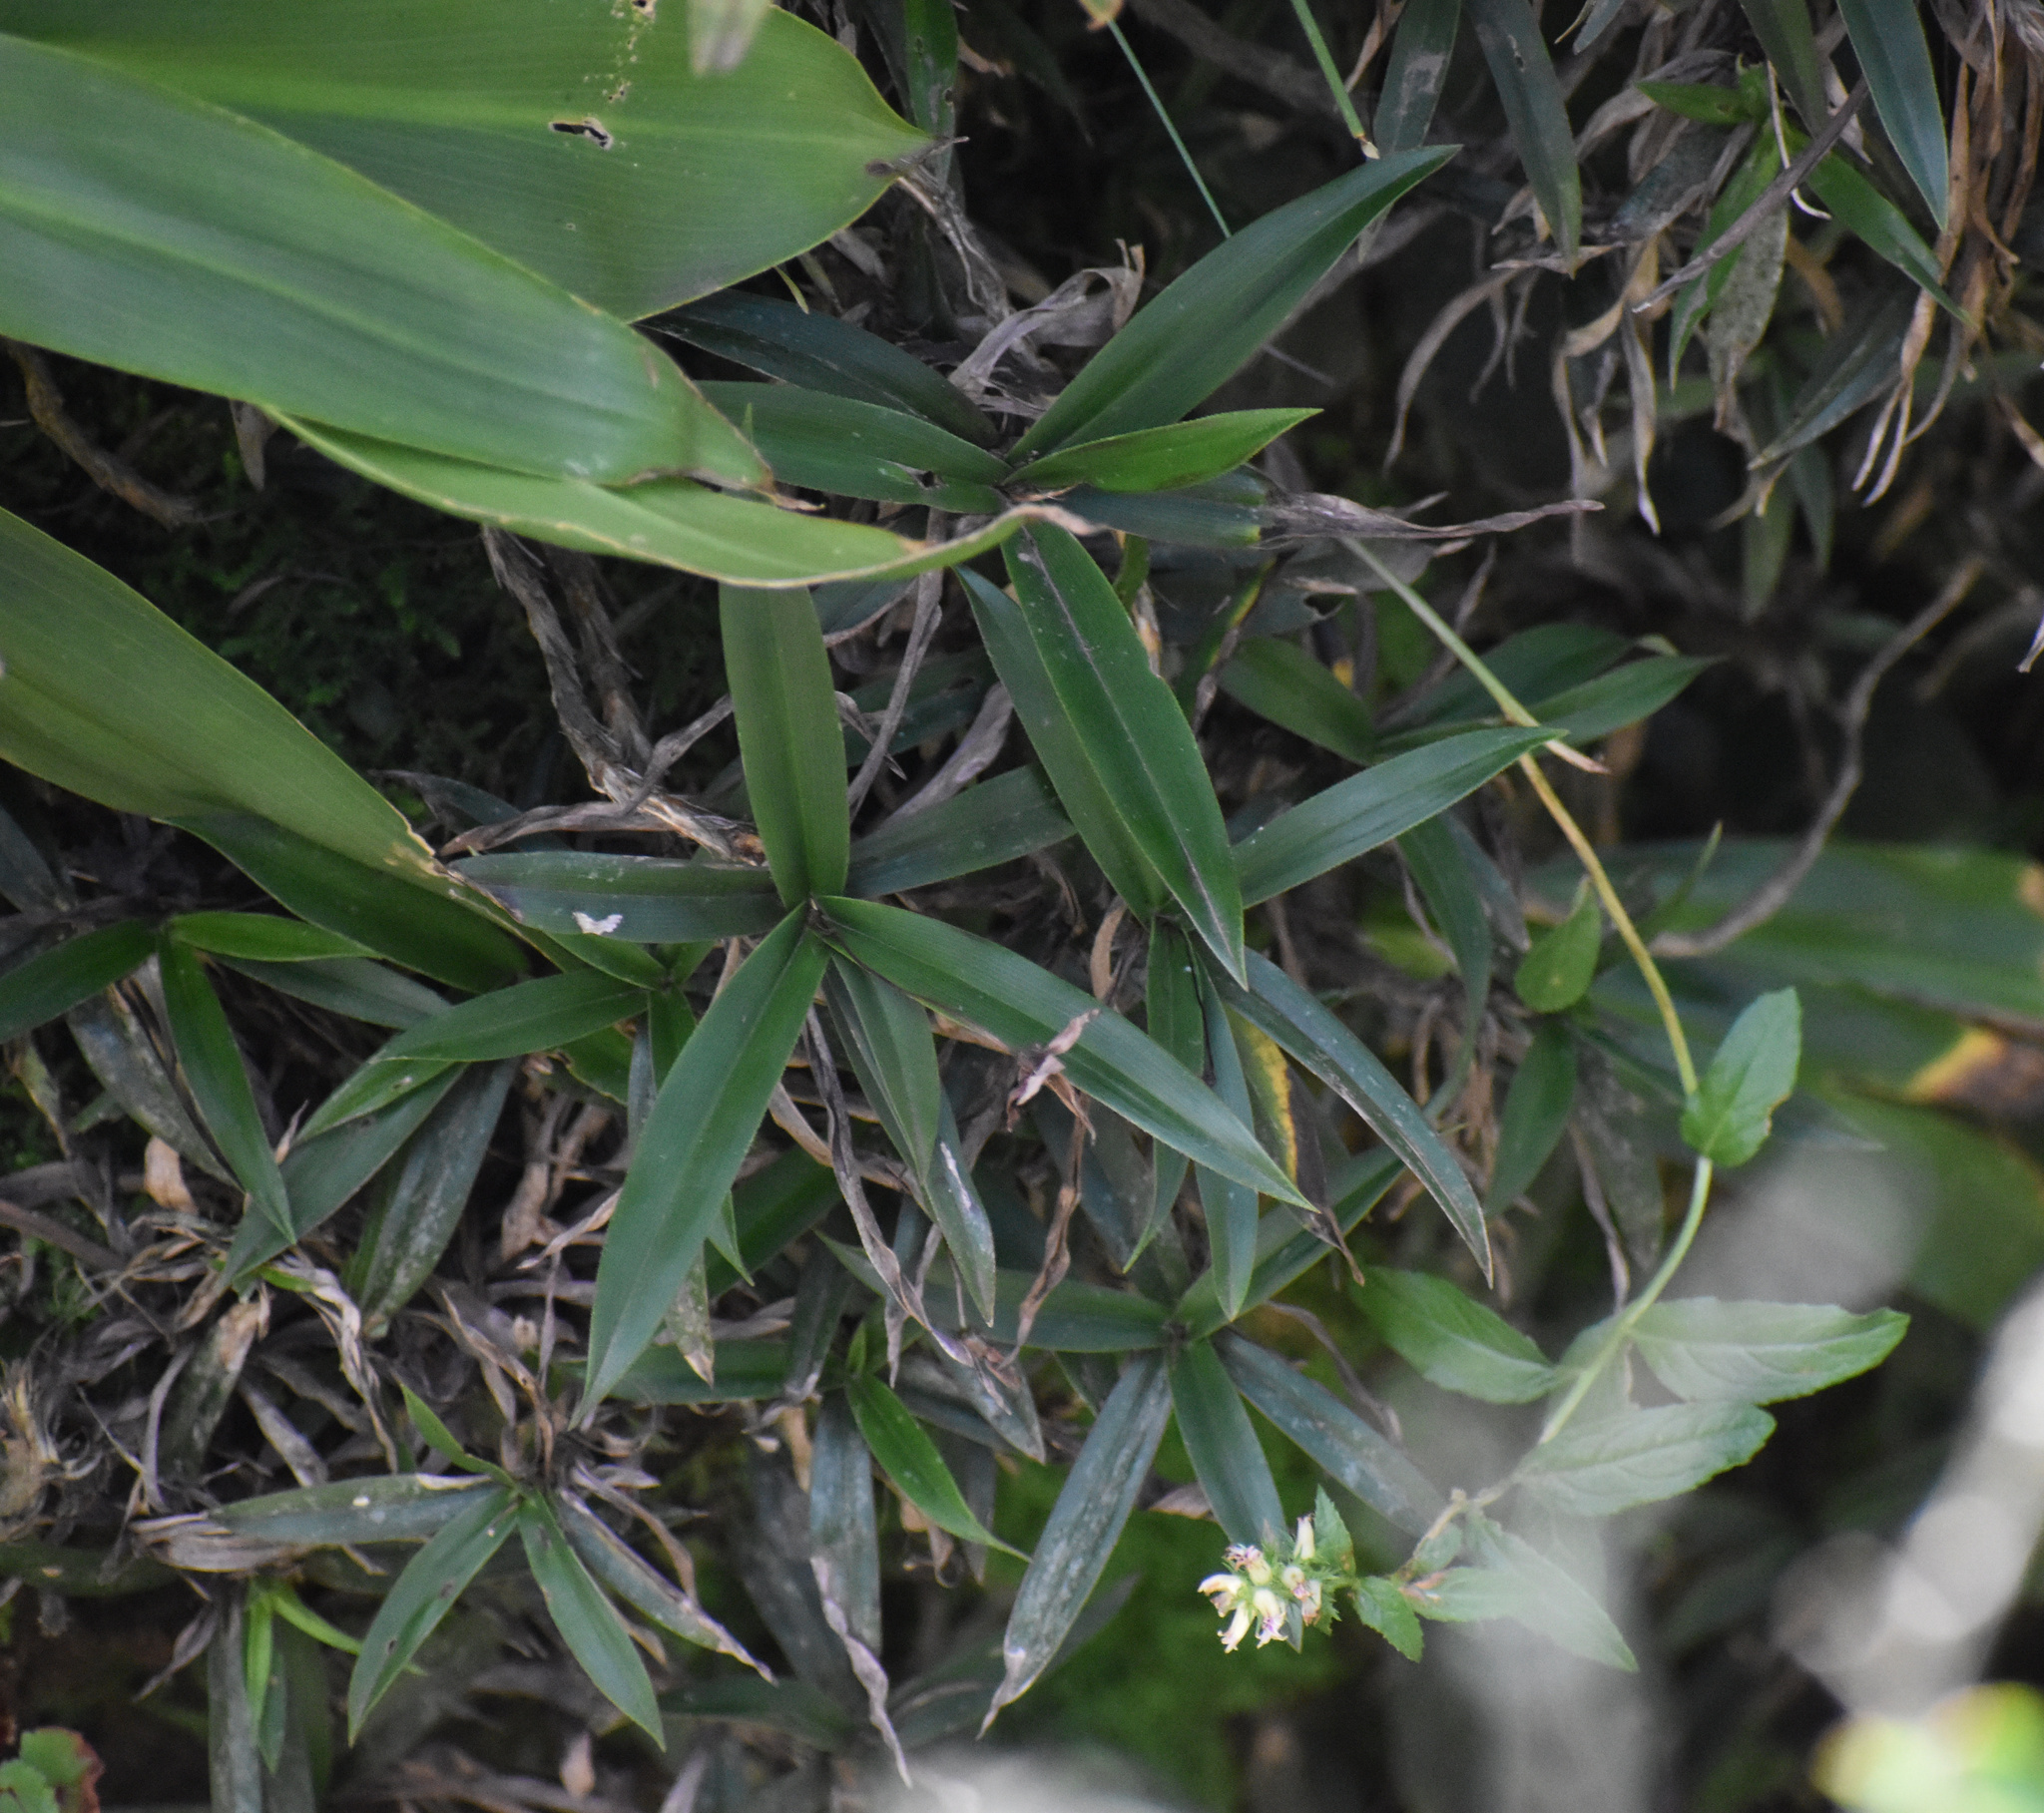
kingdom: Plantae
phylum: Tracheophyta
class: Liliopsida
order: Pandanales
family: Velloziaceae
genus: Xerophyta
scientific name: Xerophyta elegans
